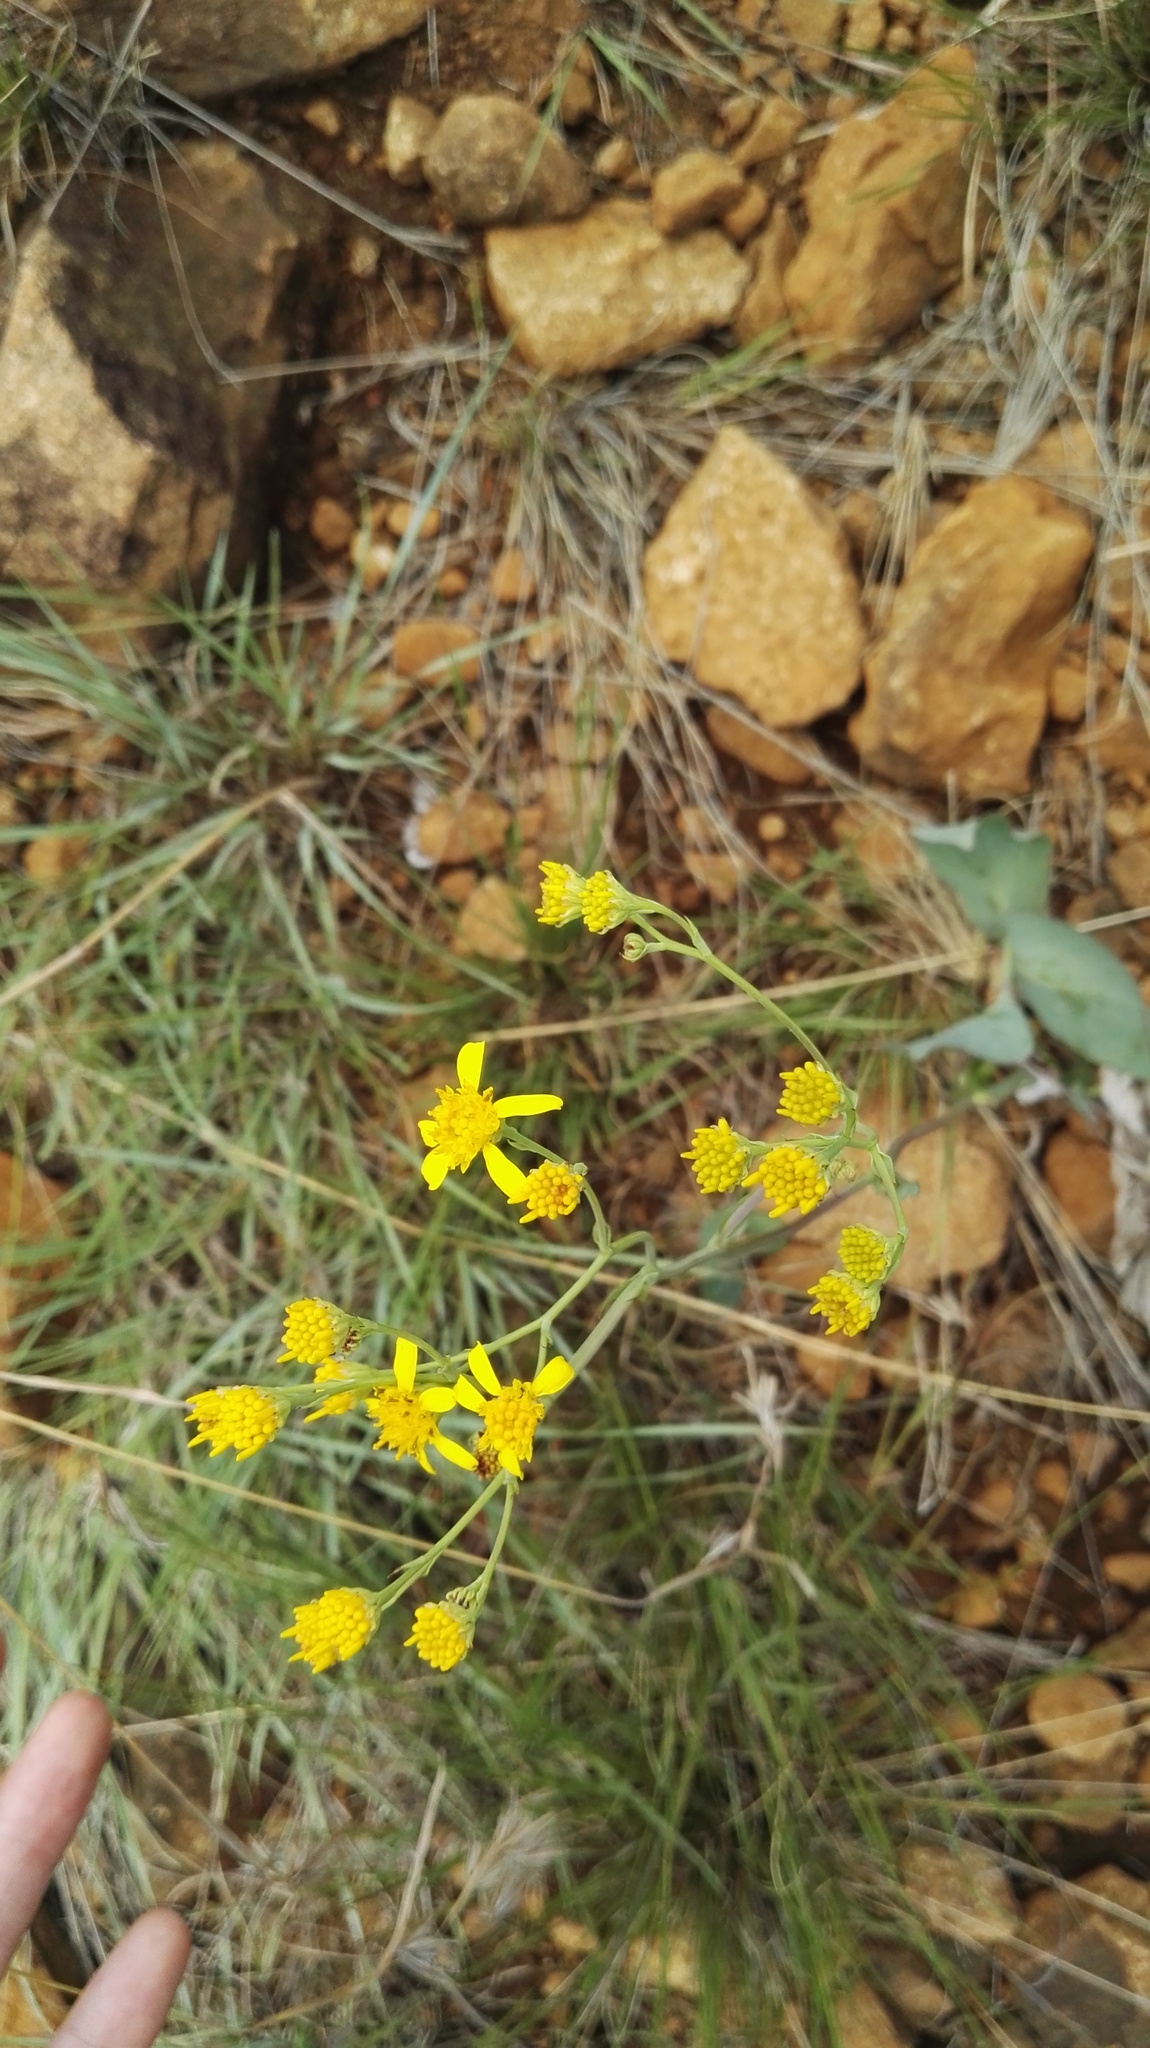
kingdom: Plantae
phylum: Tracheophyta
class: Magnoliopsida
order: Asterales
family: Asteraceae
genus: Senecio
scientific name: Senecio coronatus
